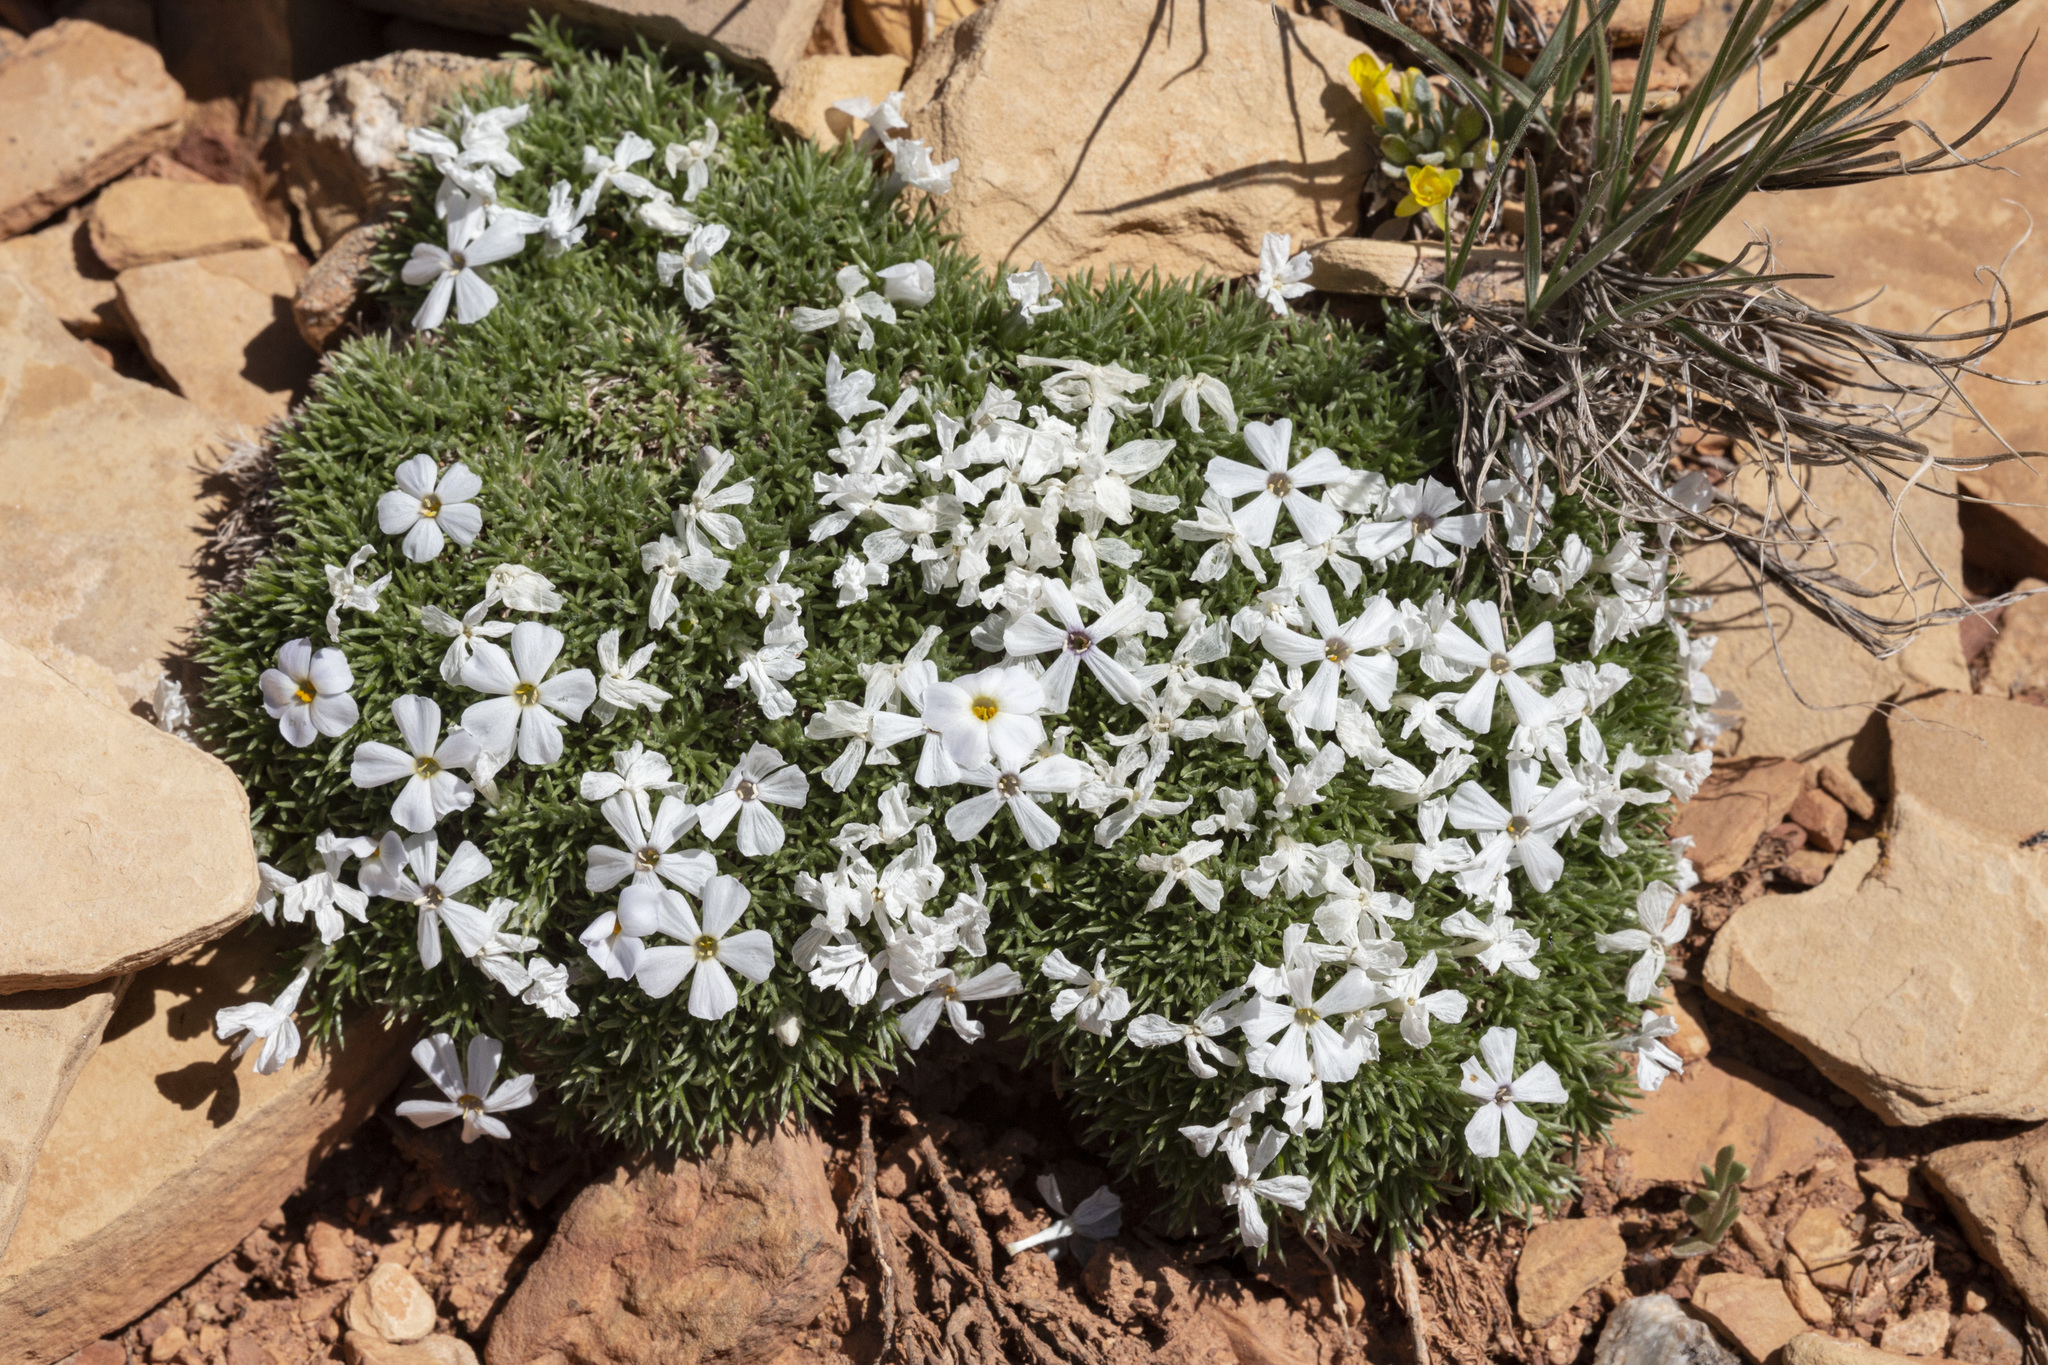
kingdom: Plantae
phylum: Tracheophyta
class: Magnoliopsida
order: Ericales
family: Polemoniaceae
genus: Phlox
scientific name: Phlox hoodii
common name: Moss phlox
